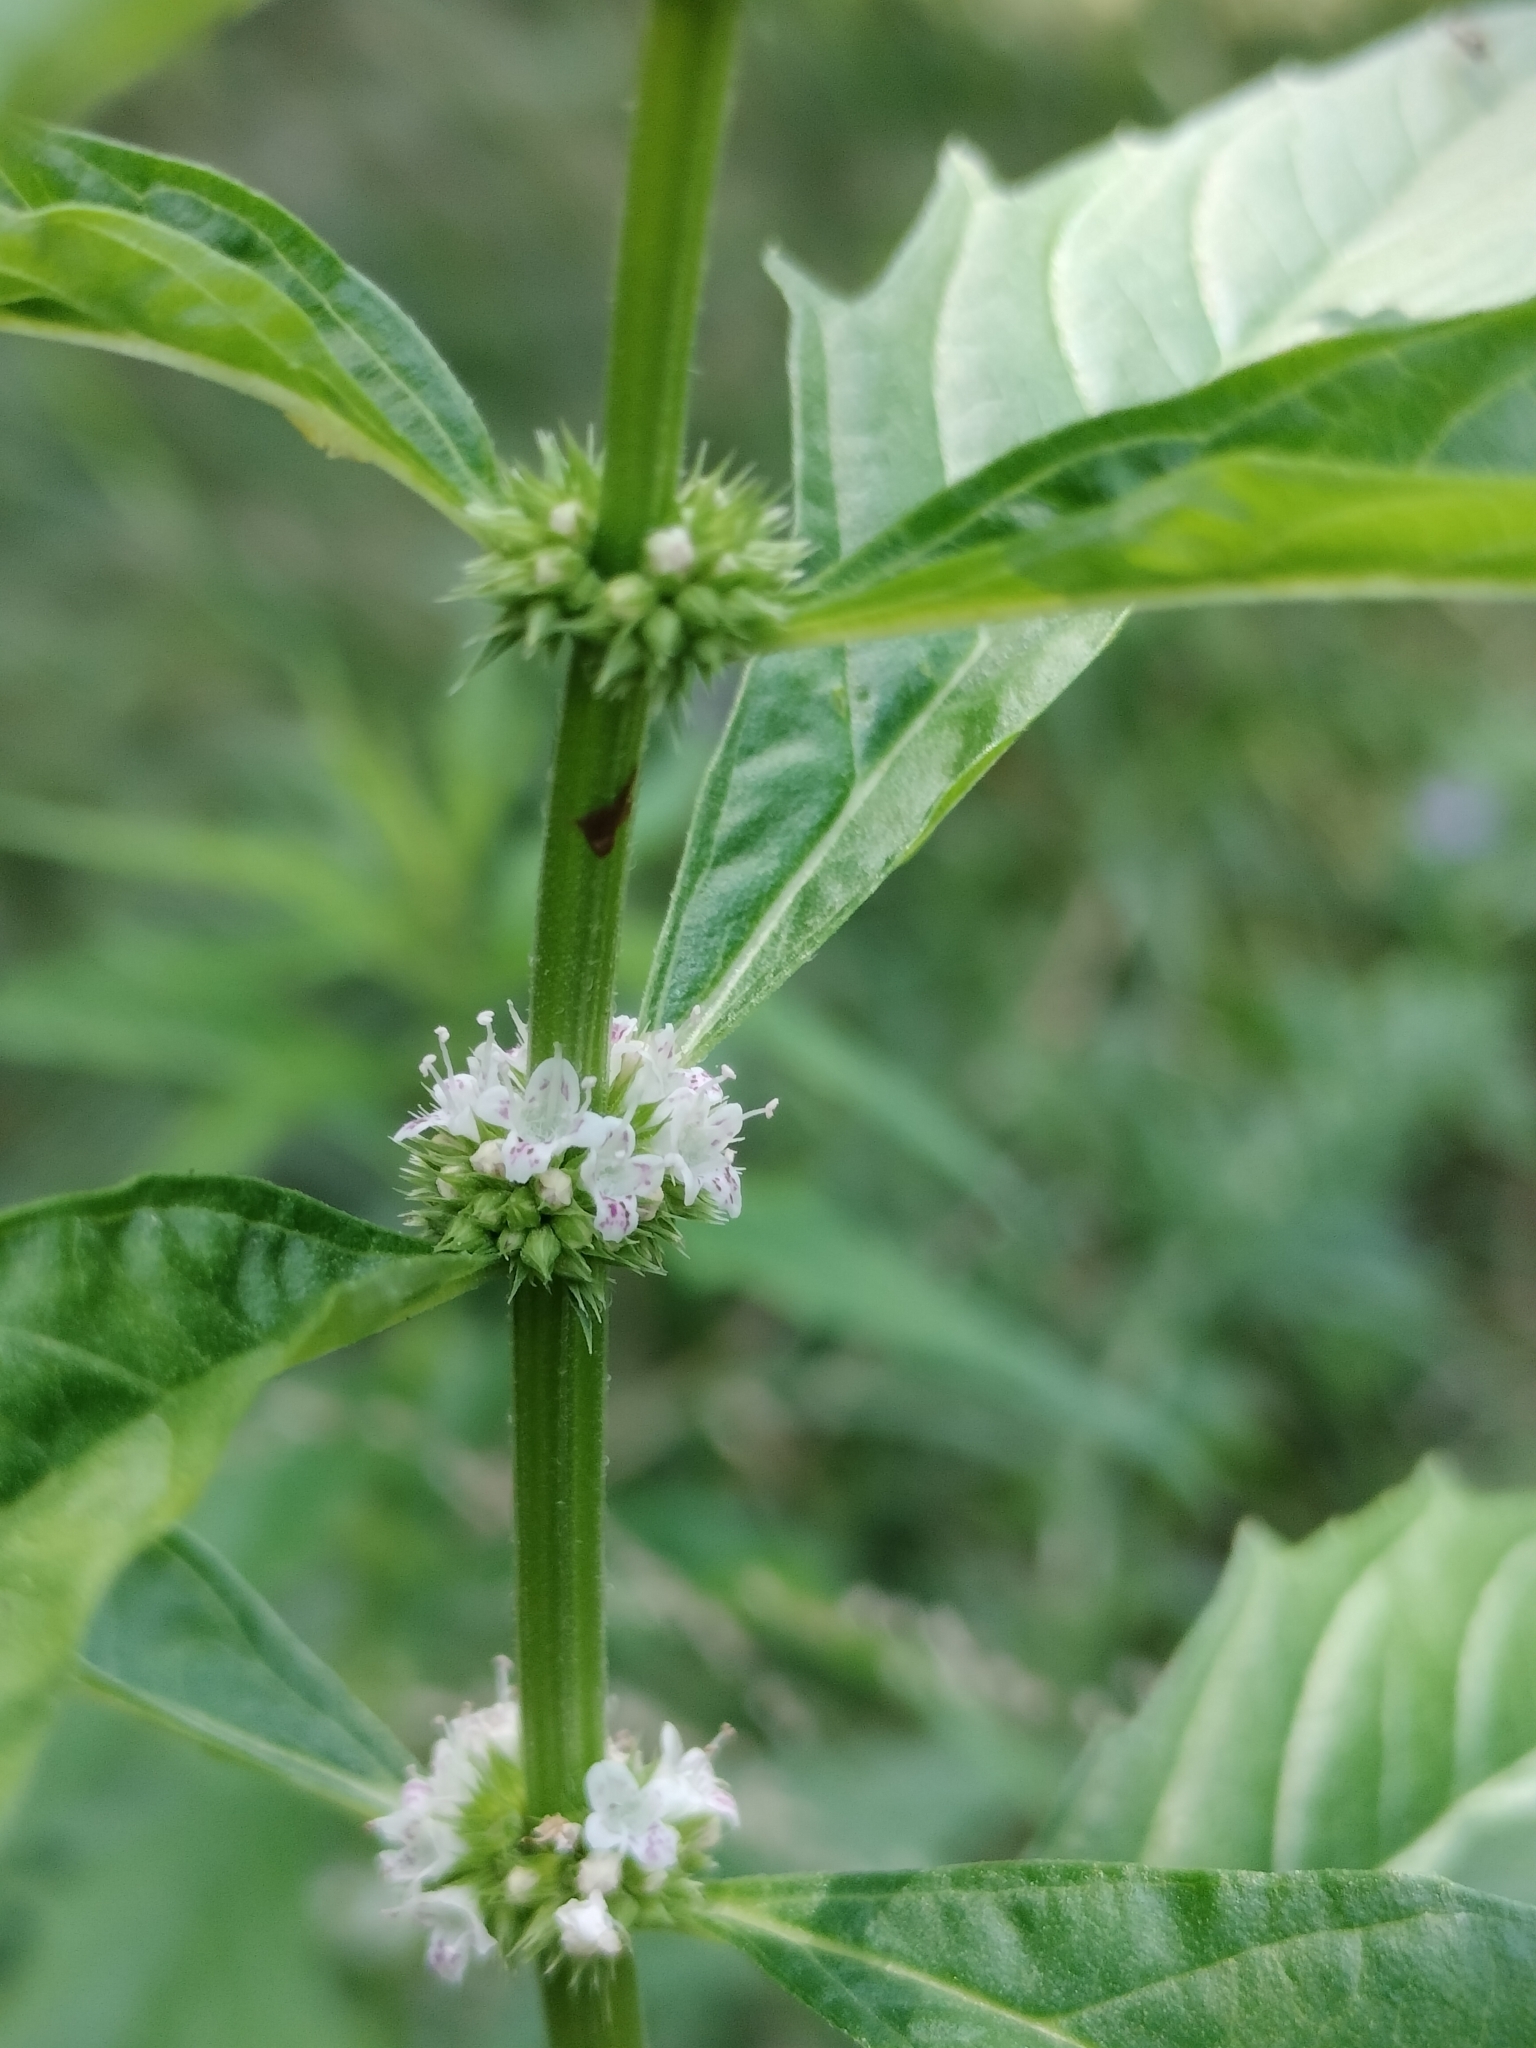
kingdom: Plantae
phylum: Tracheophyta
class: Magnoliopsida
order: Lamiales
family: Lamiaceae
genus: Lycopus
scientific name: Lycopus americanus
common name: American bugleweed
